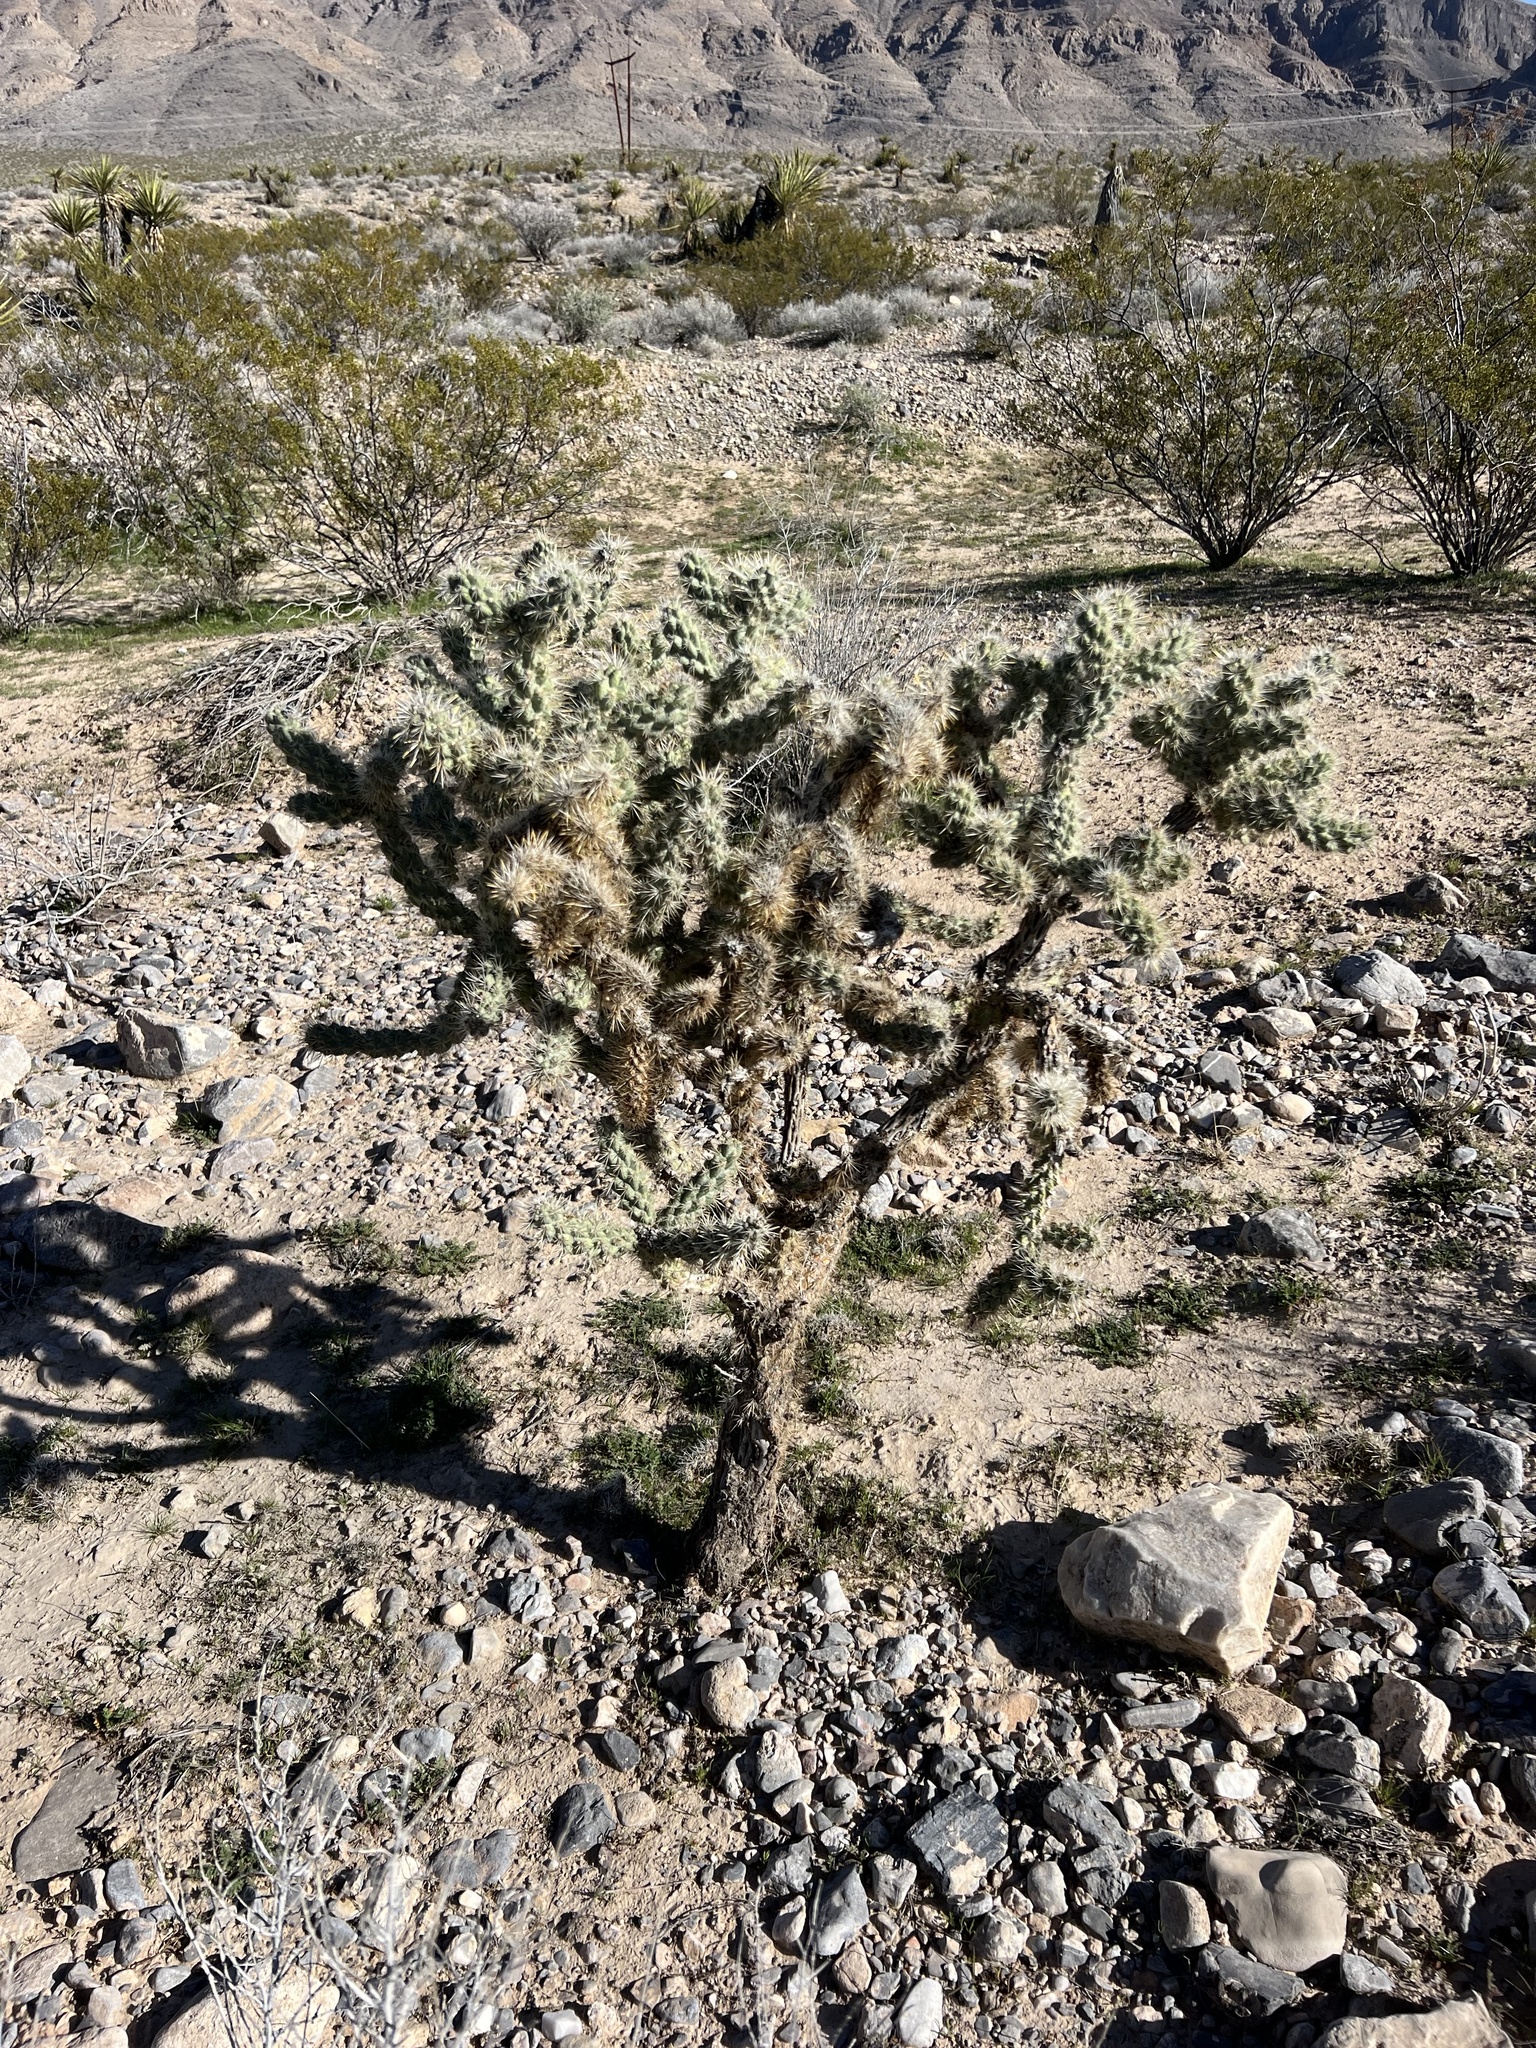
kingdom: Plantae
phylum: Tracheophyta
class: Magnoliopsida
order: Caryophyllales
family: Cactaceae
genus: Cylindropuntia
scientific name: Cylindropuntia echinocarpa
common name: Ground cholla
